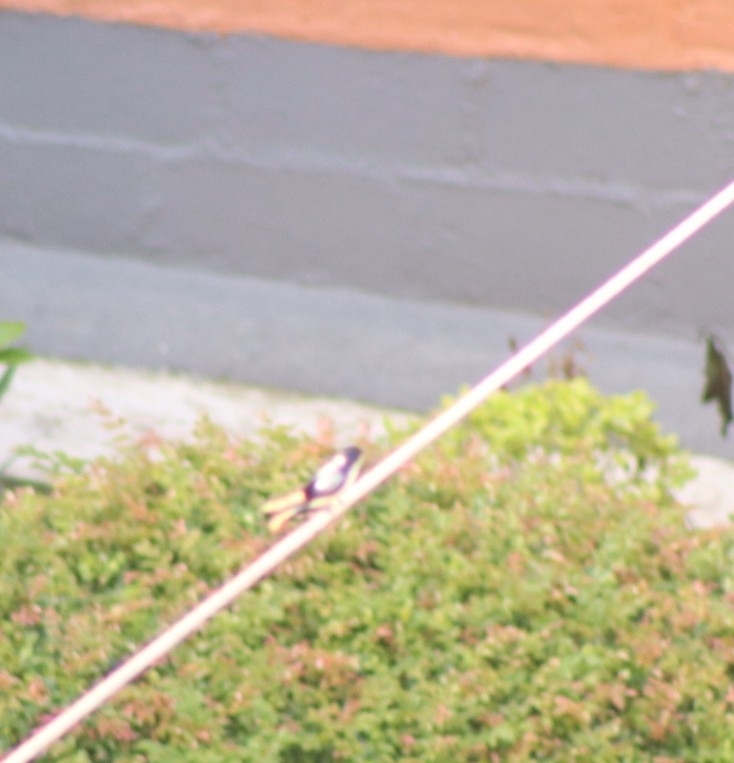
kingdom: Animalia
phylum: Chordata
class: Aves
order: Passeriformes
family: Hirundinidae
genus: Notiochelidon
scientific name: Notiochelidon cyanoleuca
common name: Blue-and-white swallow
